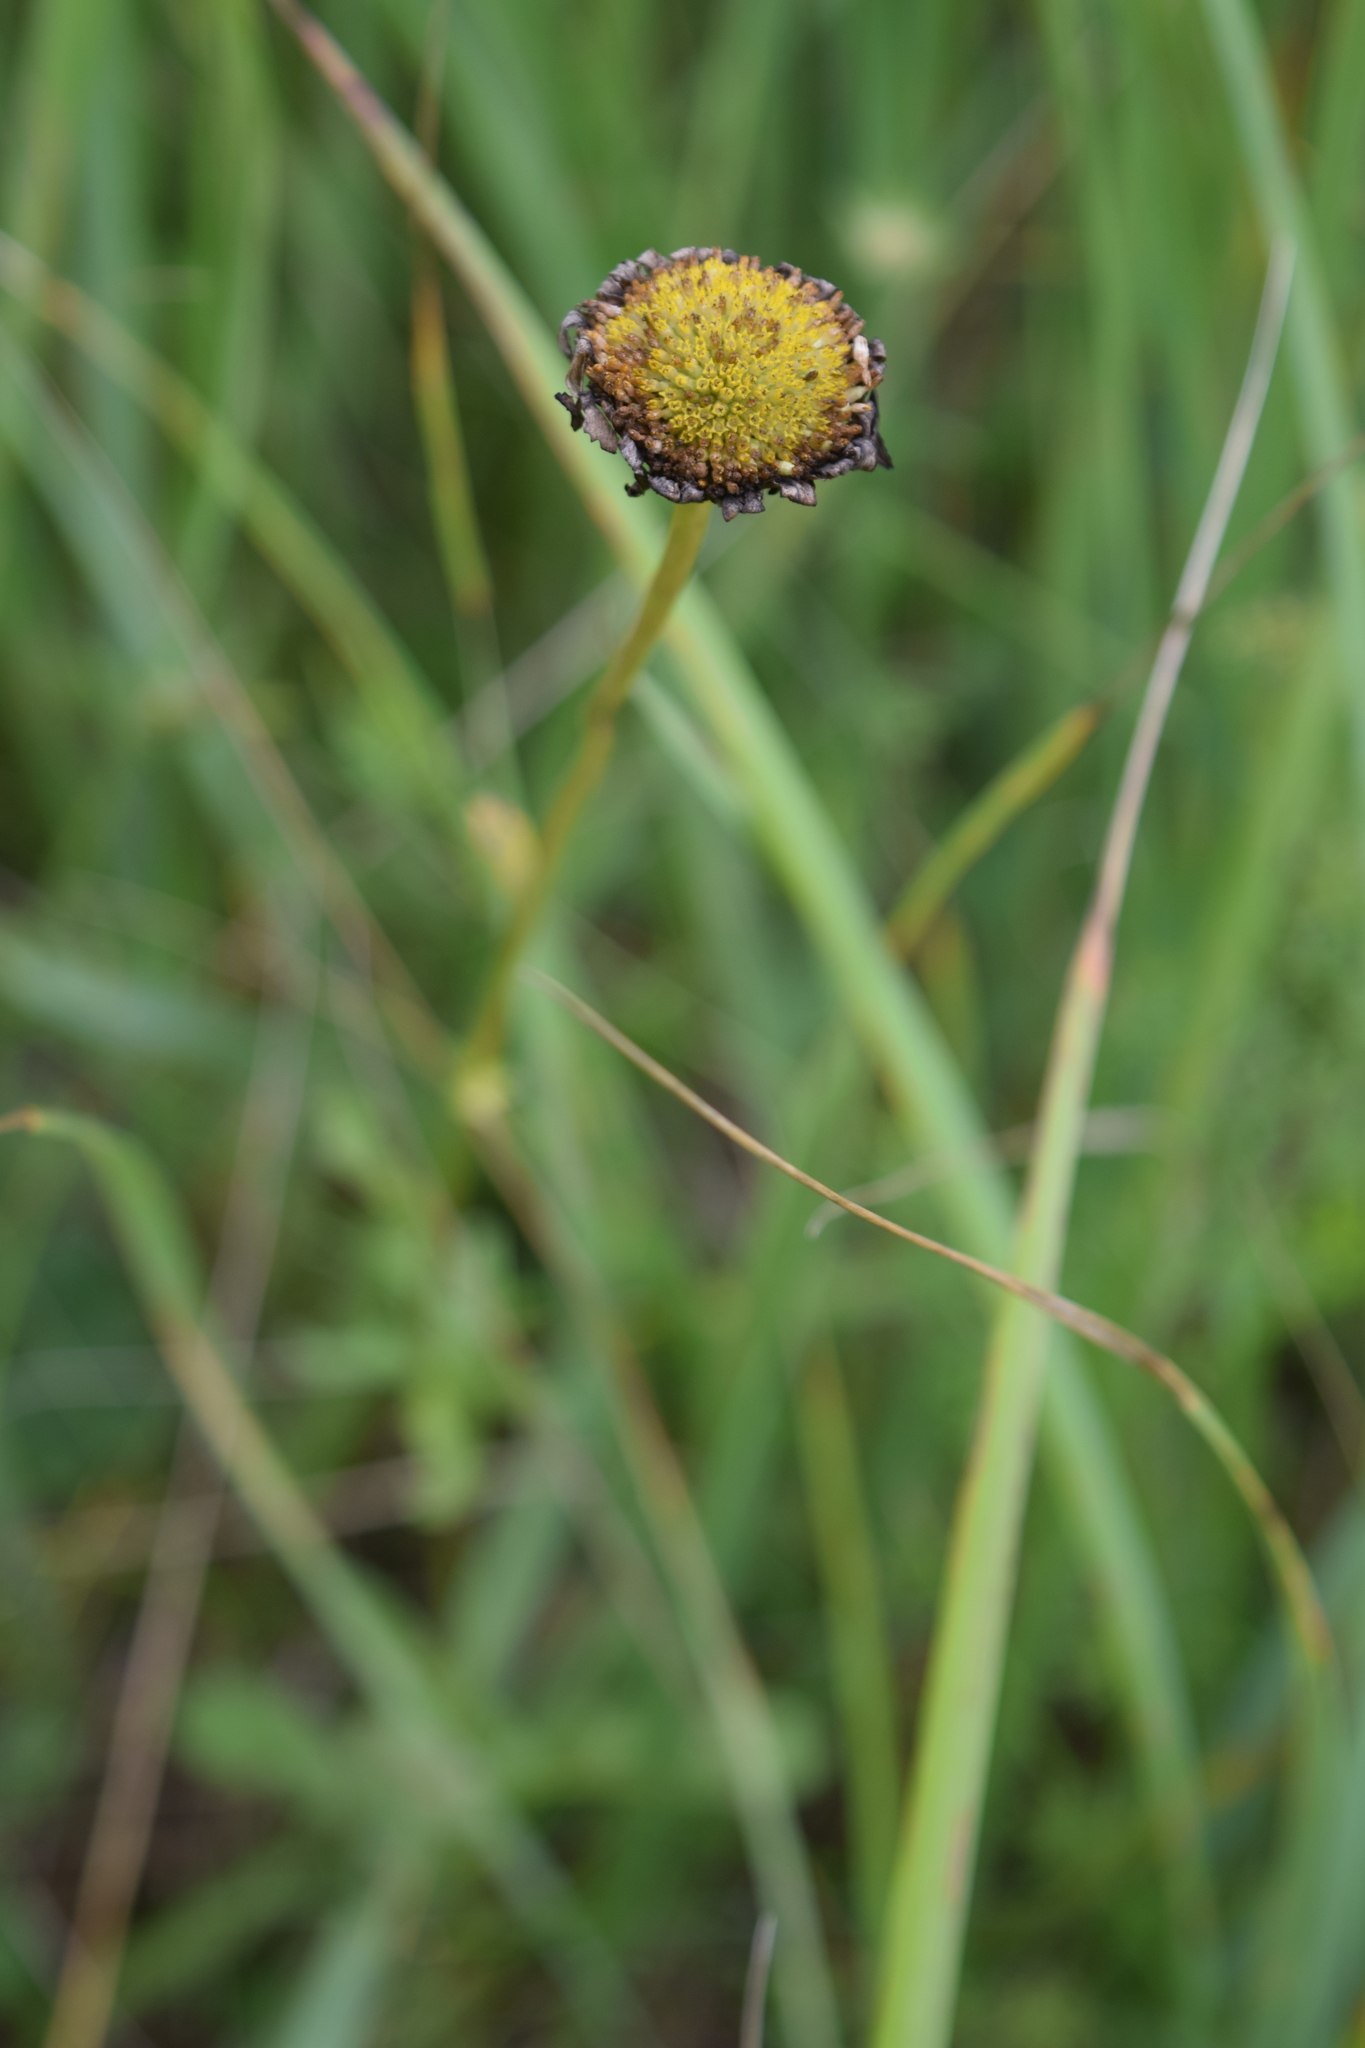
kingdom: Plantae
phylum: Tracheophyta
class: Magnoliopsida
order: Asterales
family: Asteraceae
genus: Leucanthemum
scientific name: Leucanthemum vulgare
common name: Oxeye daisy
